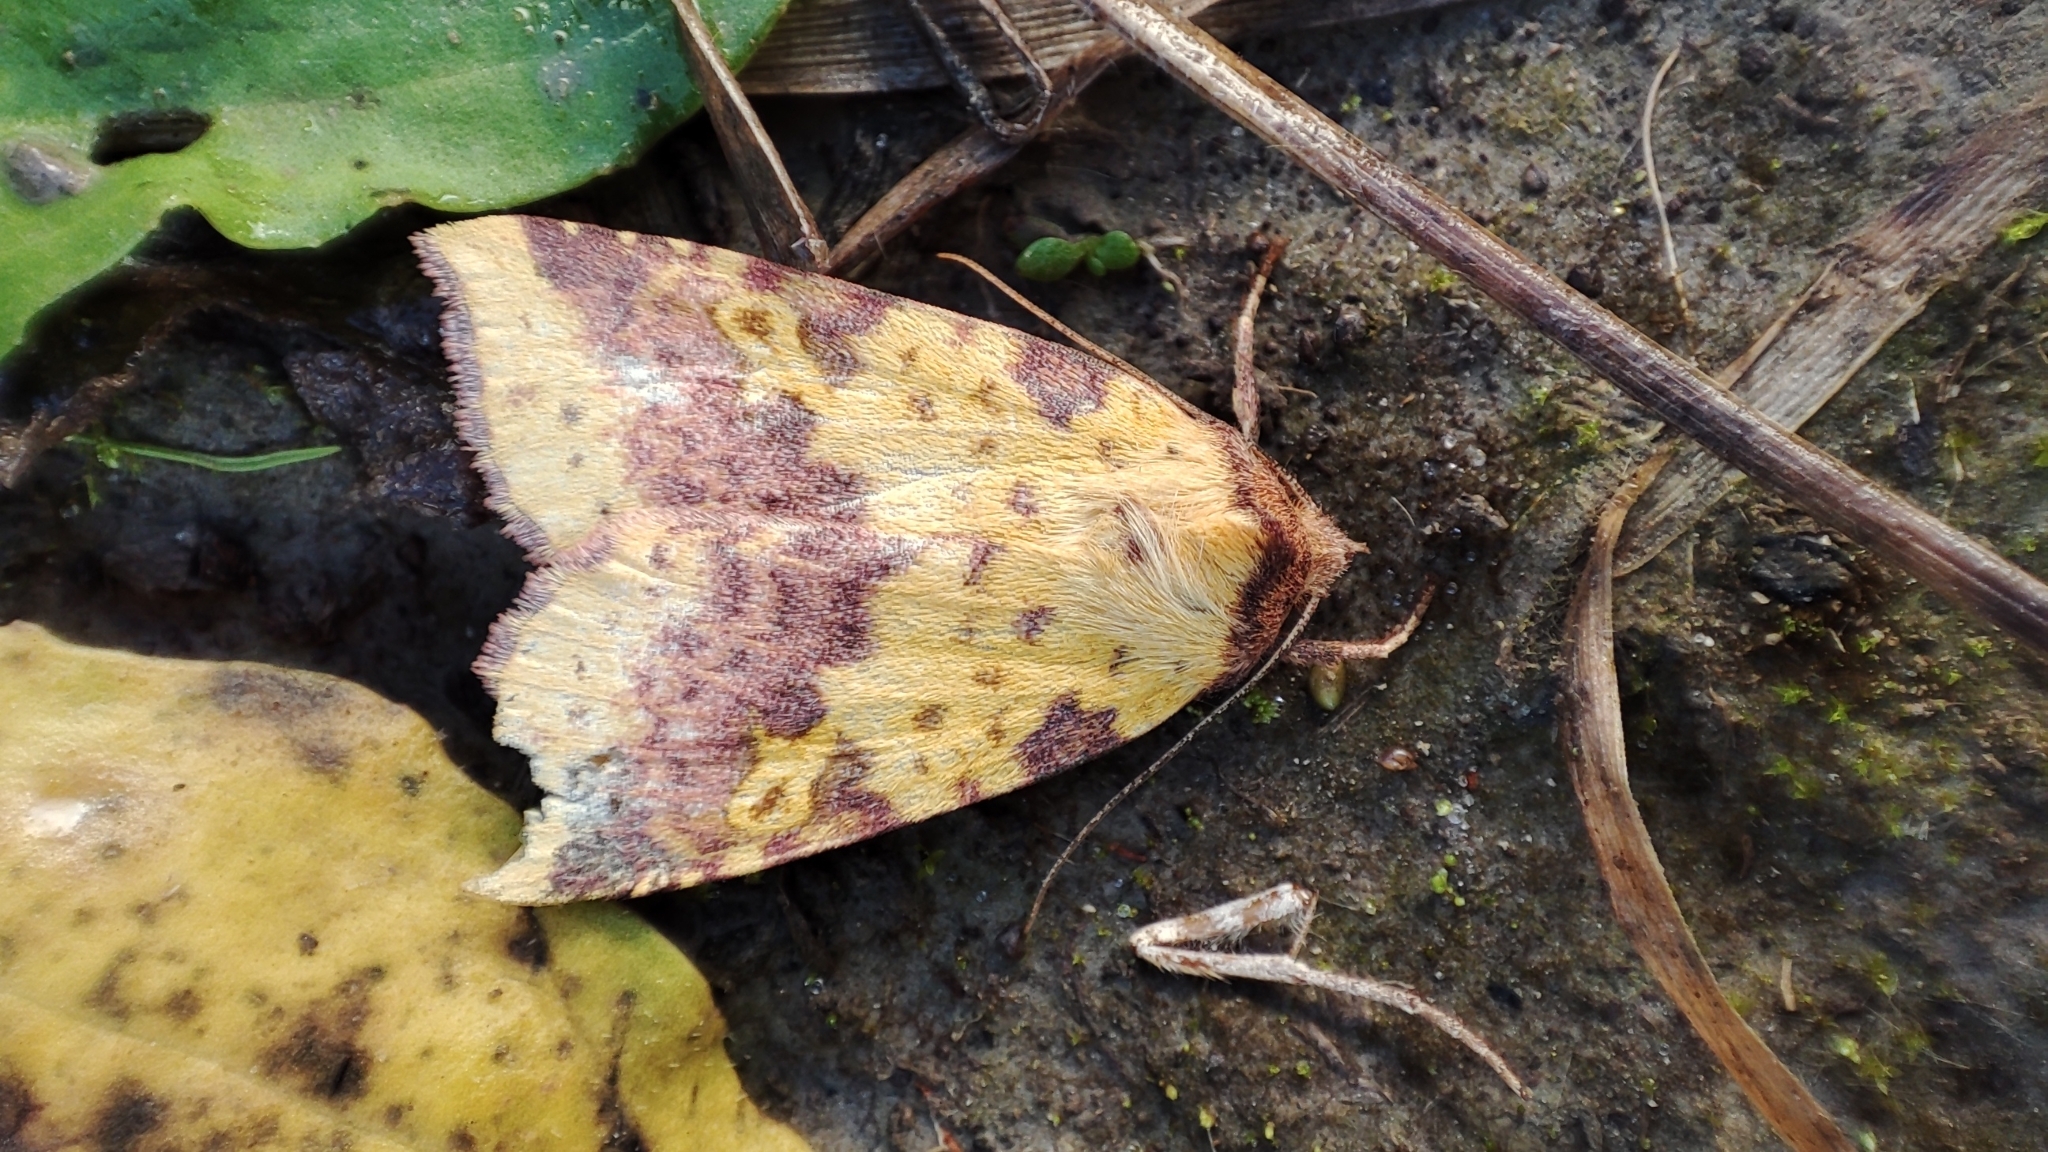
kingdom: Animalia
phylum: Arthropoda
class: Insecta
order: Lepidoptera
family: Noctuidae
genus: Xanthia
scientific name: Xanthia togata
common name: Pink-barred sallow
